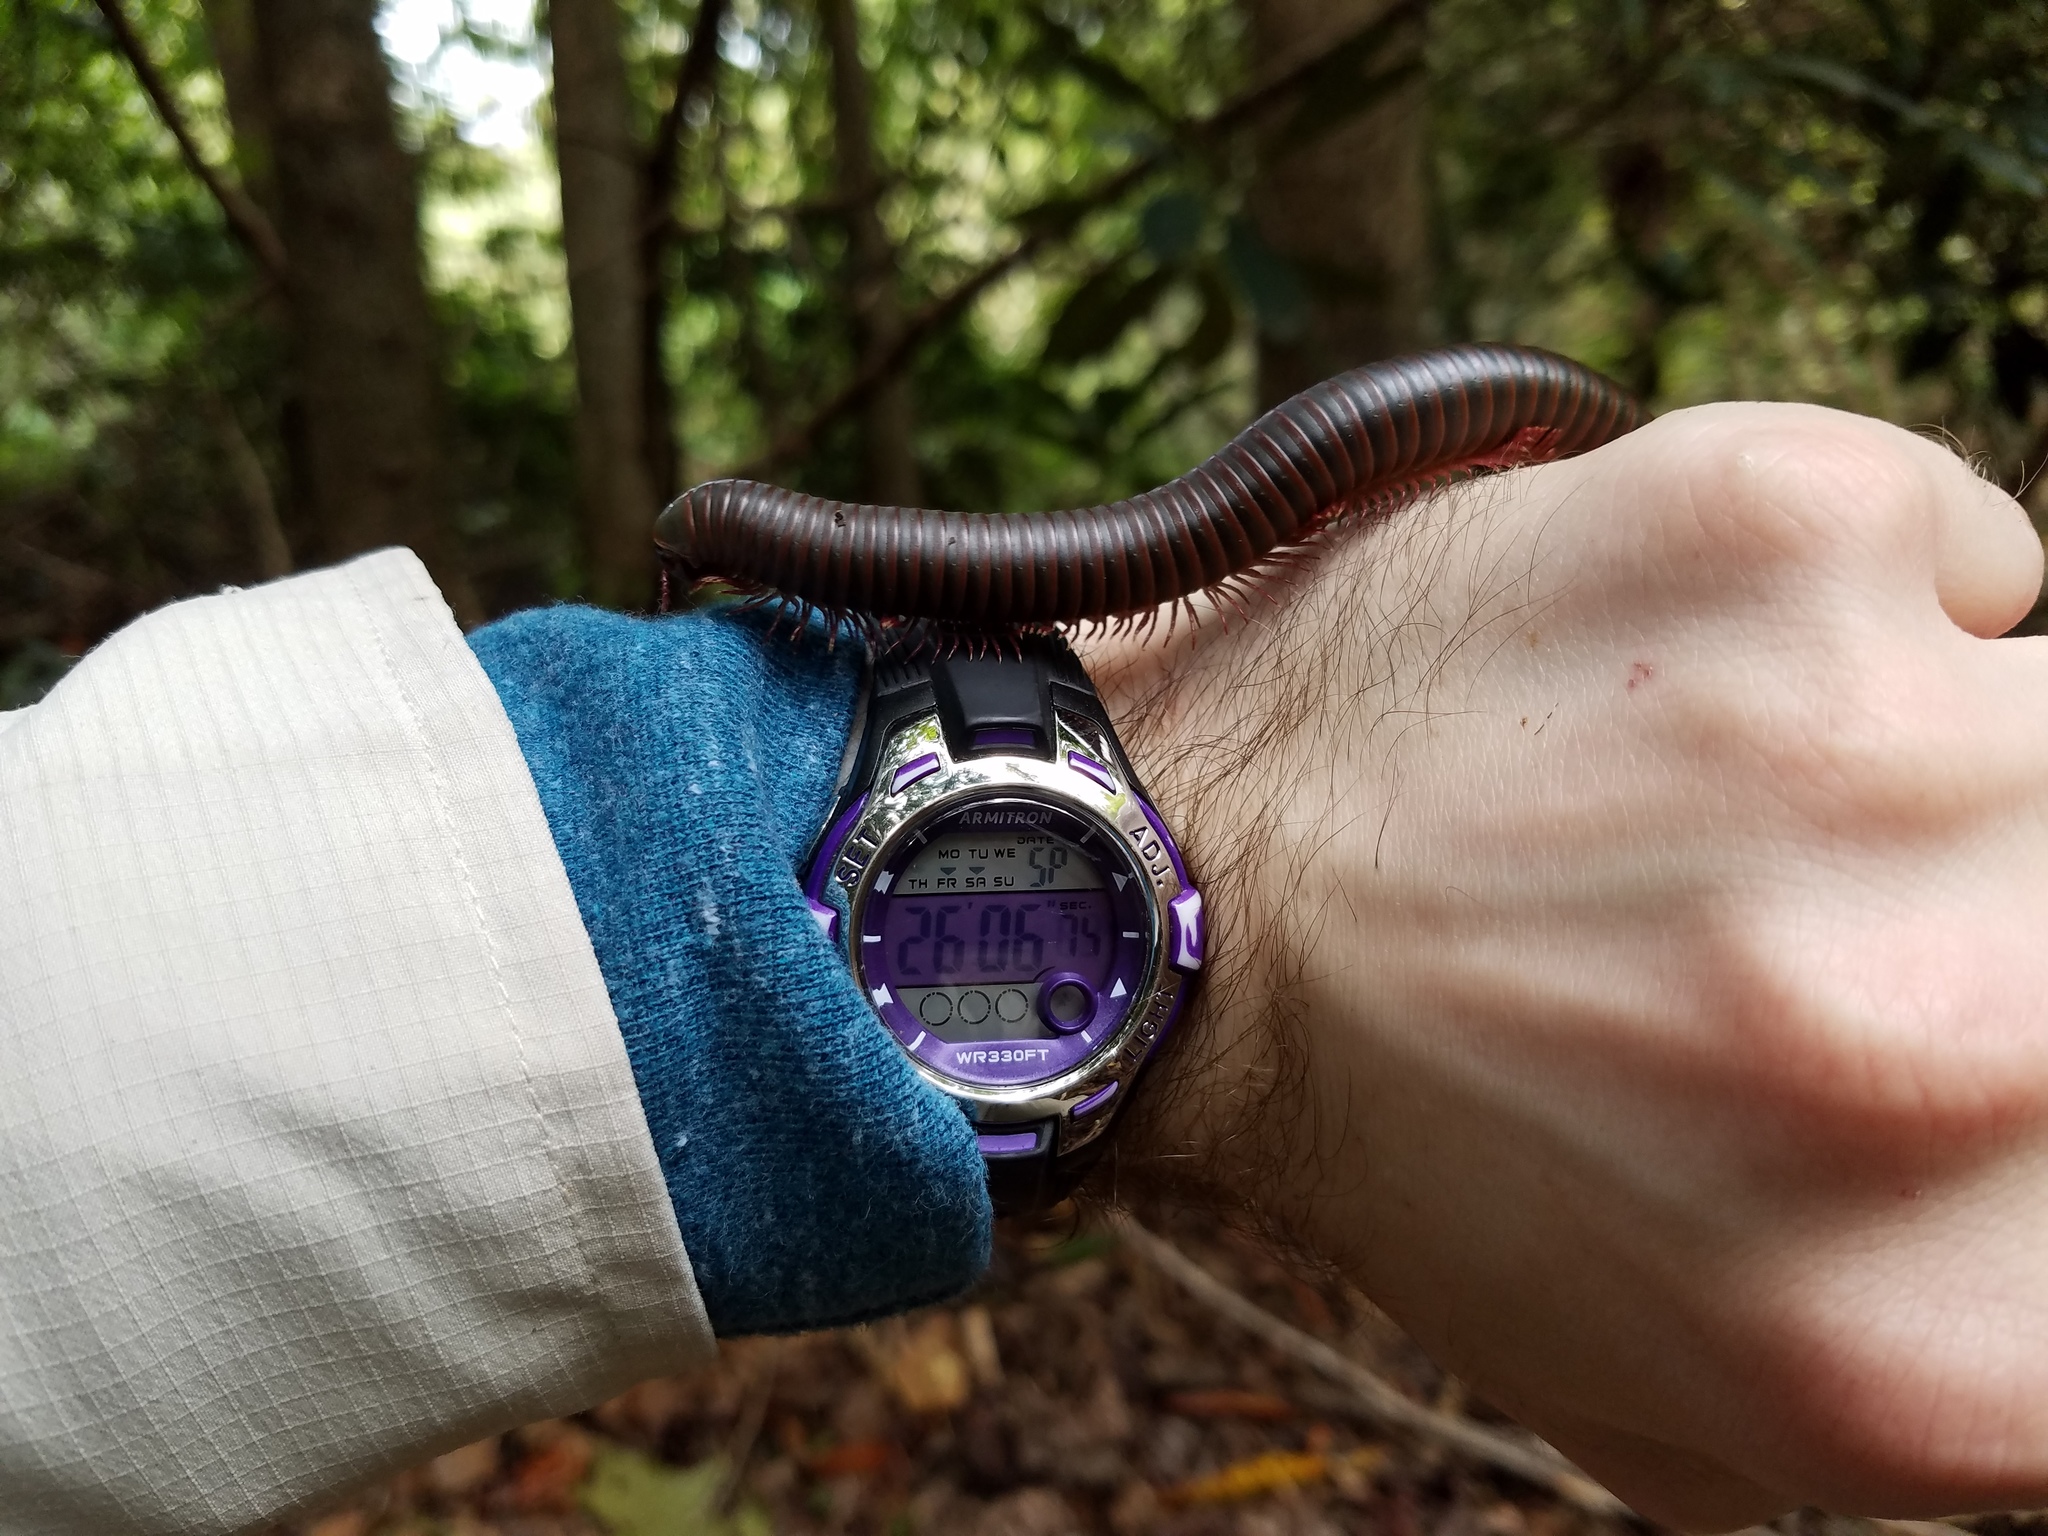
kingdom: Animalia
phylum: Arthropoda
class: Diplopoda
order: Spirobolida
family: Spirobolidae
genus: Narceus
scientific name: Narceus
